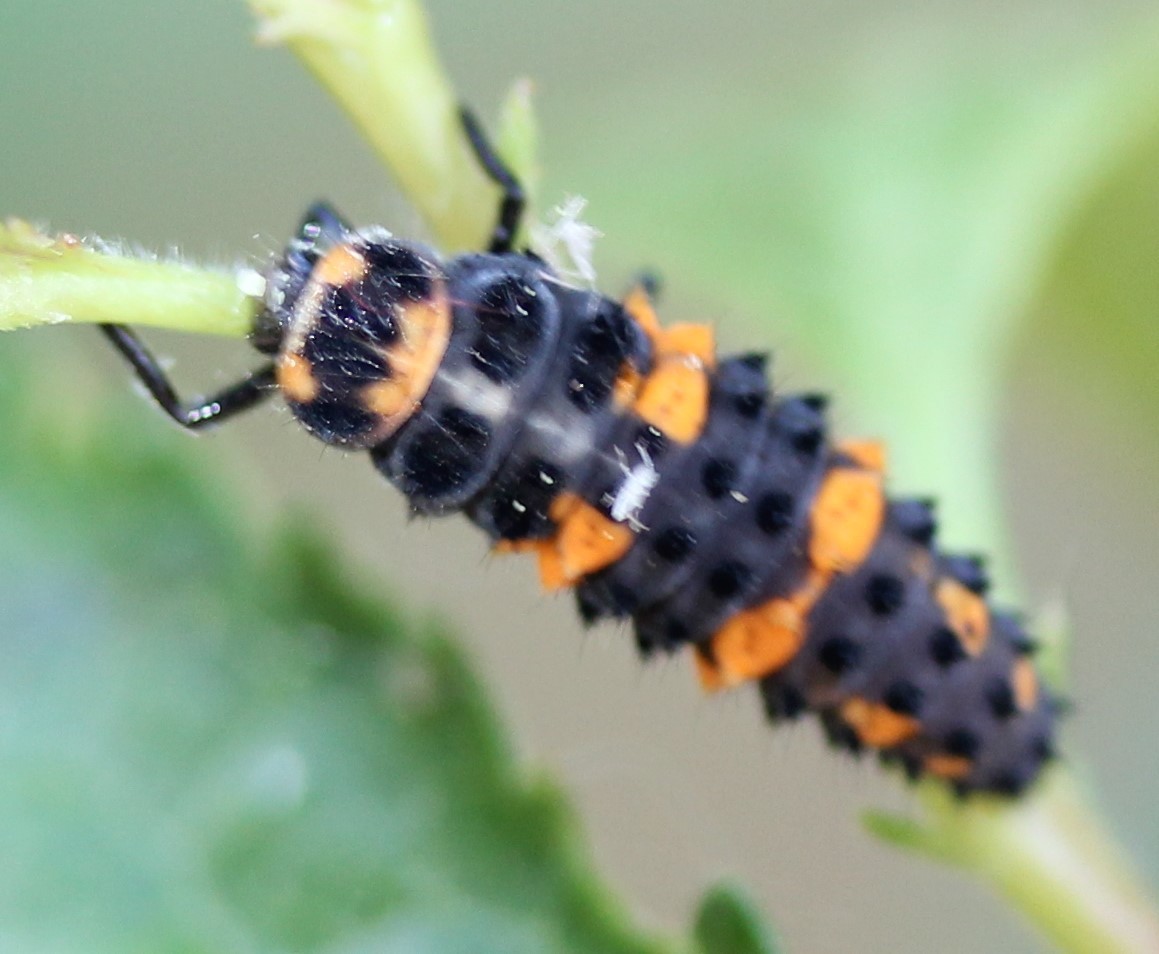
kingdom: Animalia
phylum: Arthropoda
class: Insecta
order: Coleoptera
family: Coccinellidae
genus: Hippodamia
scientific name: Hippodamia convergens
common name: Convergent lady beetle
